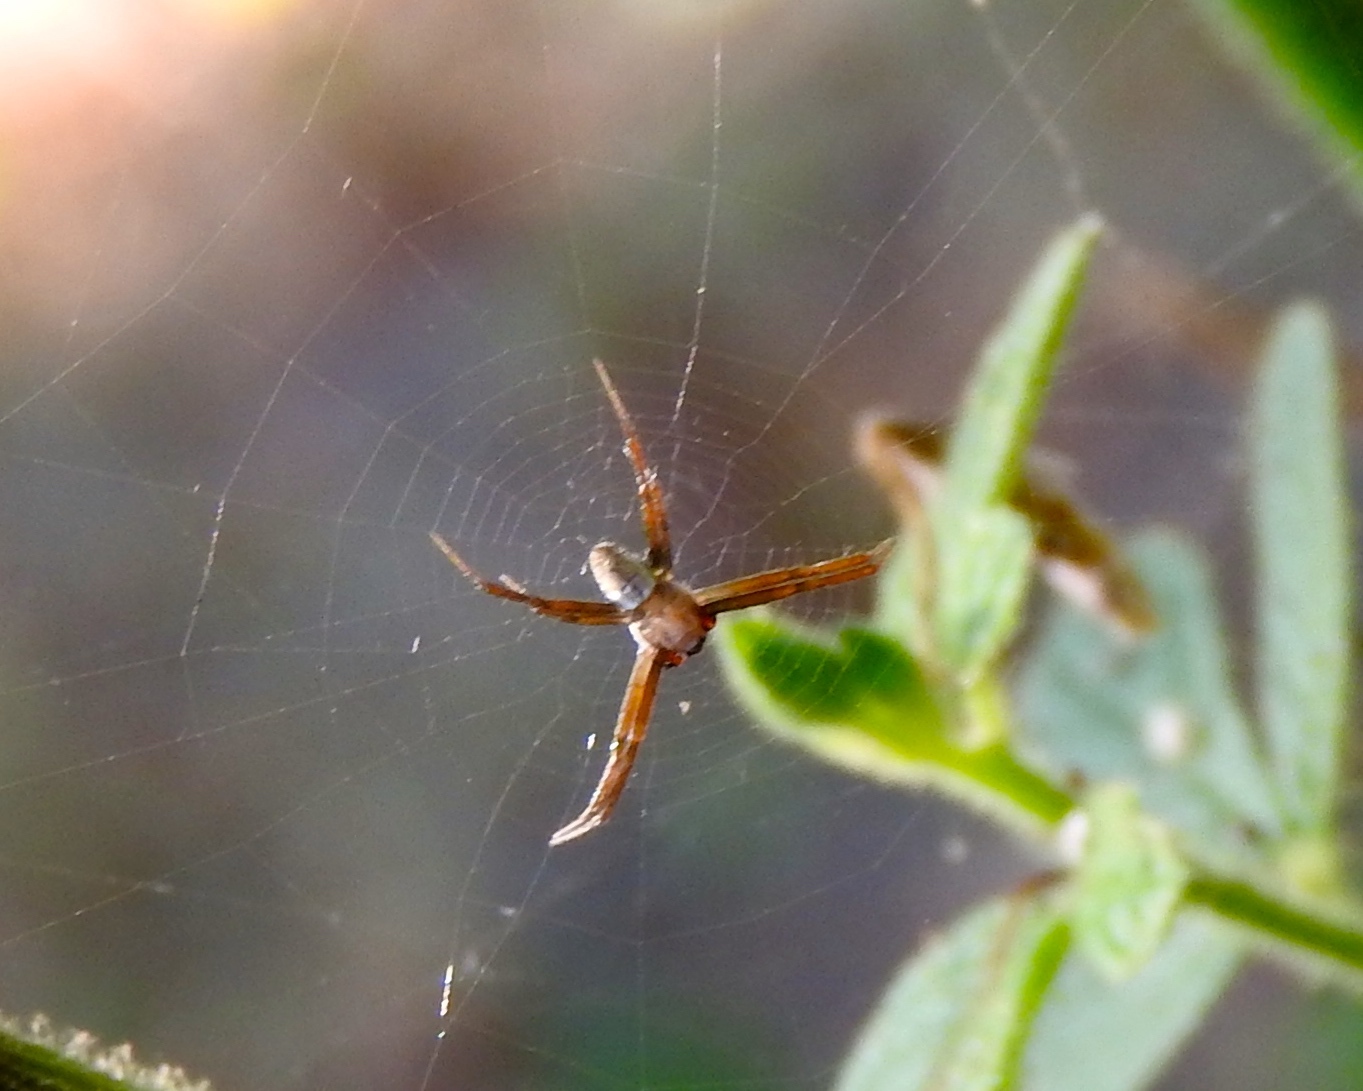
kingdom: Animalia
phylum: Arthropoda
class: Arachnida
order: Araneae
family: Araneidae
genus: Argiope
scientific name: Argiope trifasciata
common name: Banded garden spider
